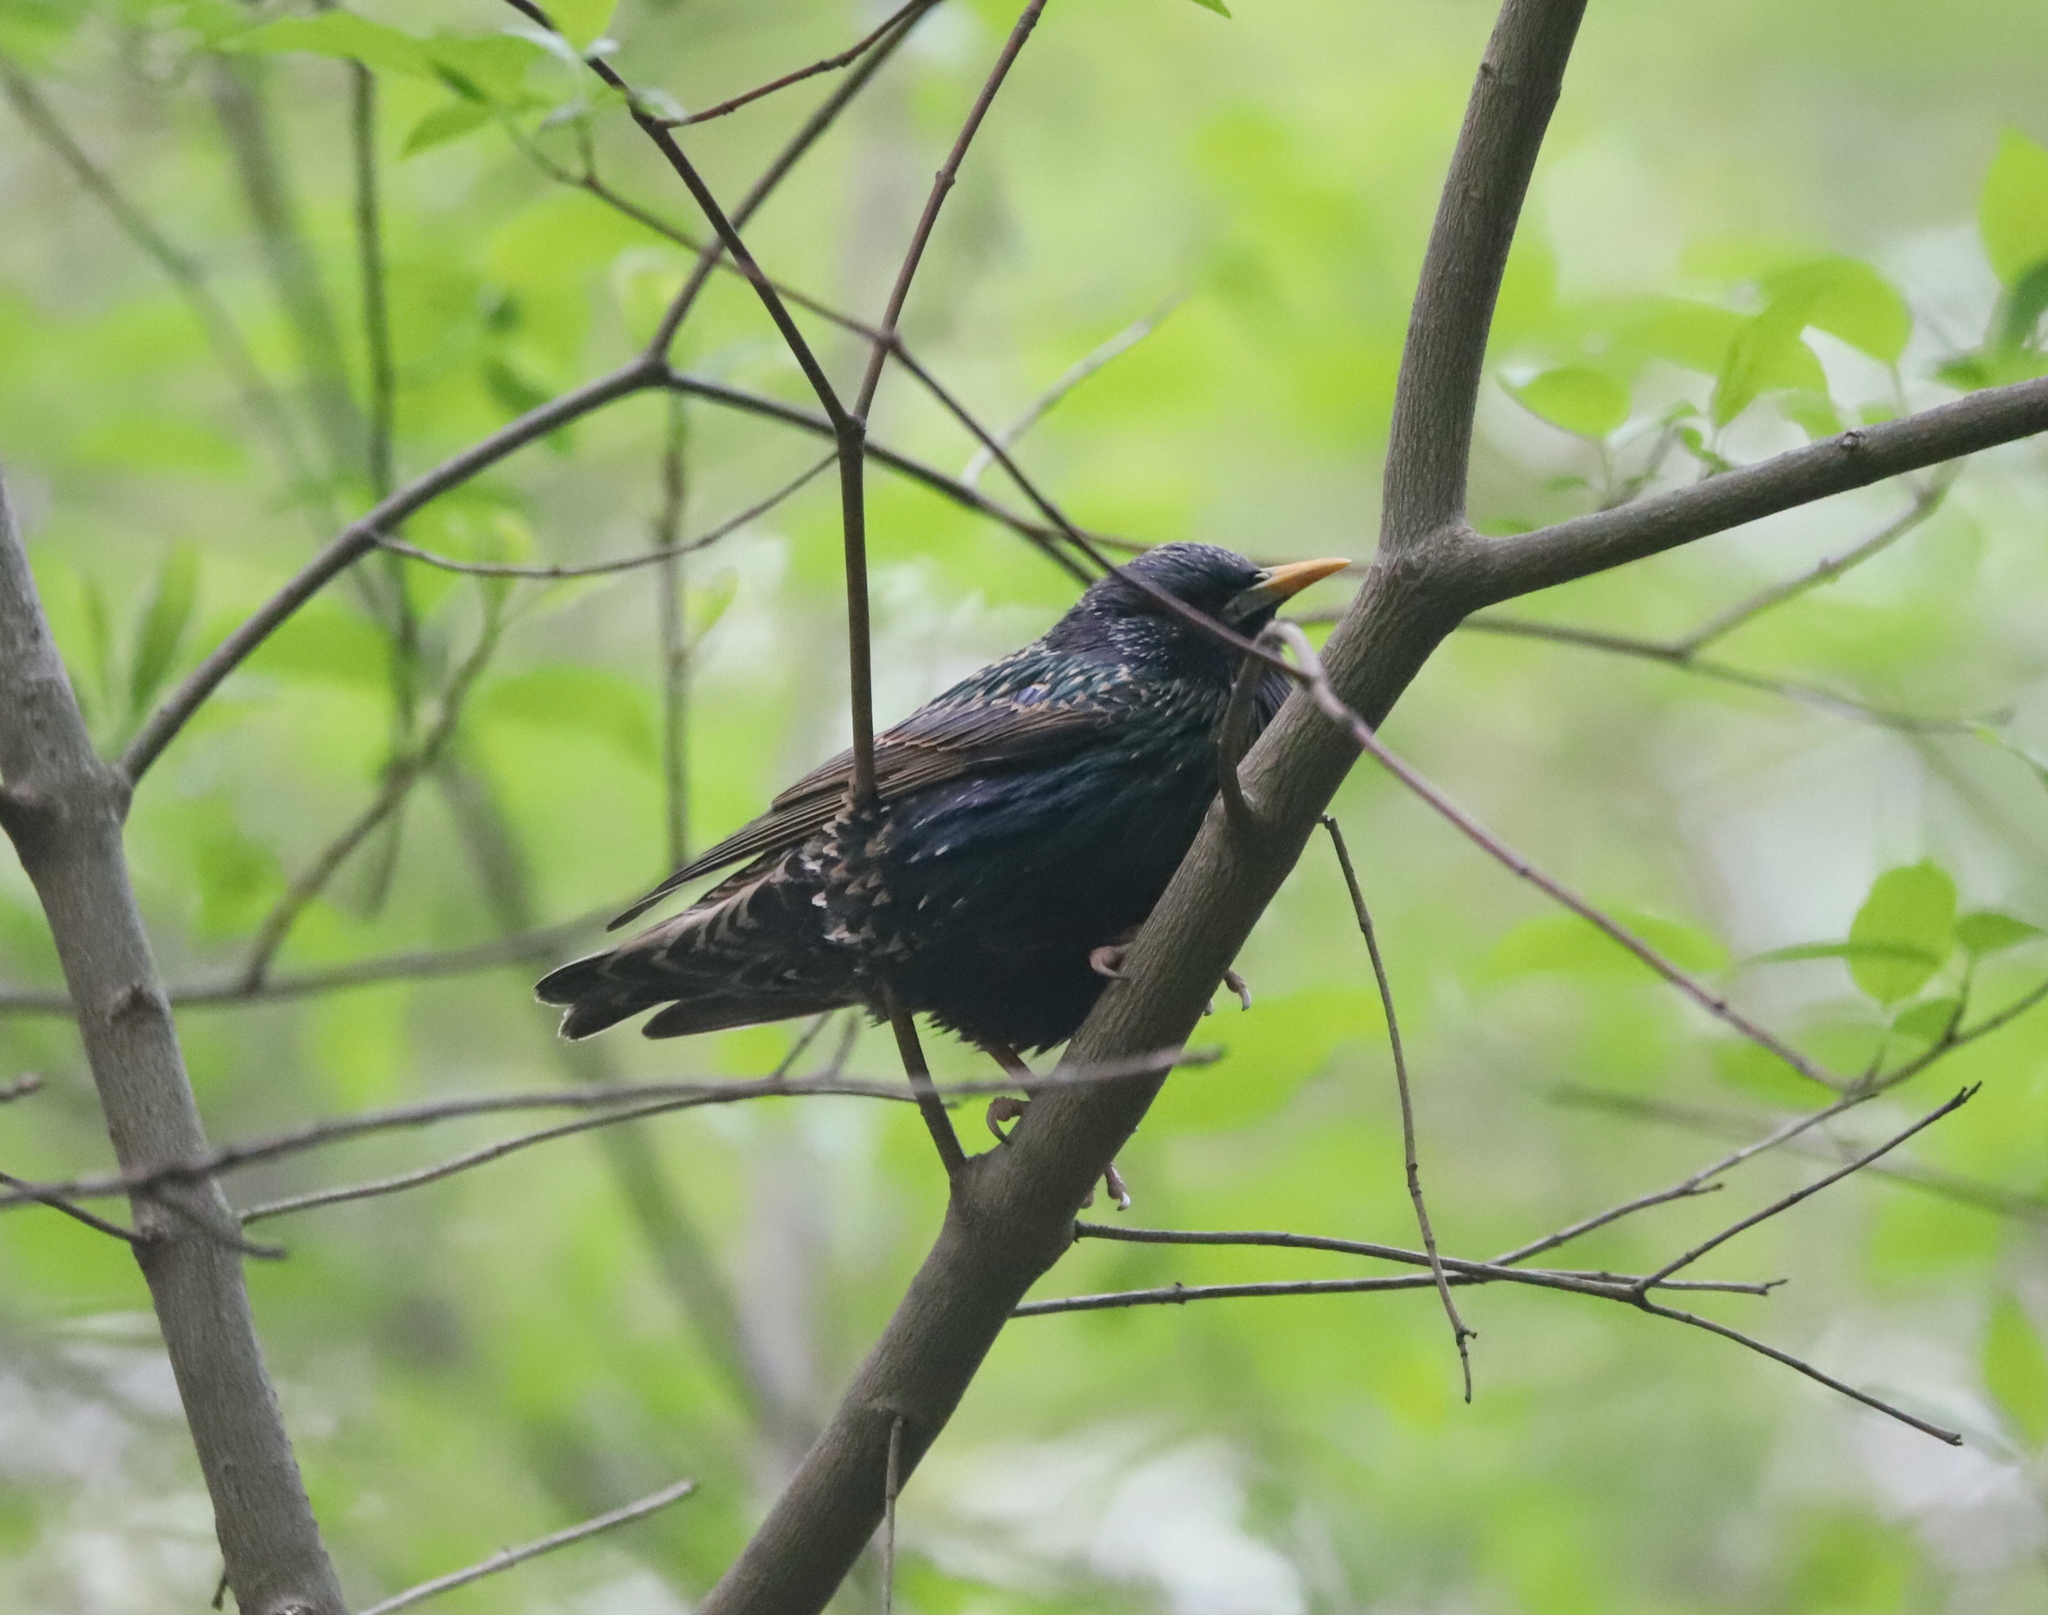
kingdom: Animalia
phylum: Chordata
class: Aves
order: Passeriformes
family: Sturnidae
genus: Sturnus
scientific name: Sturnus vulgaris
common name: Common starling
